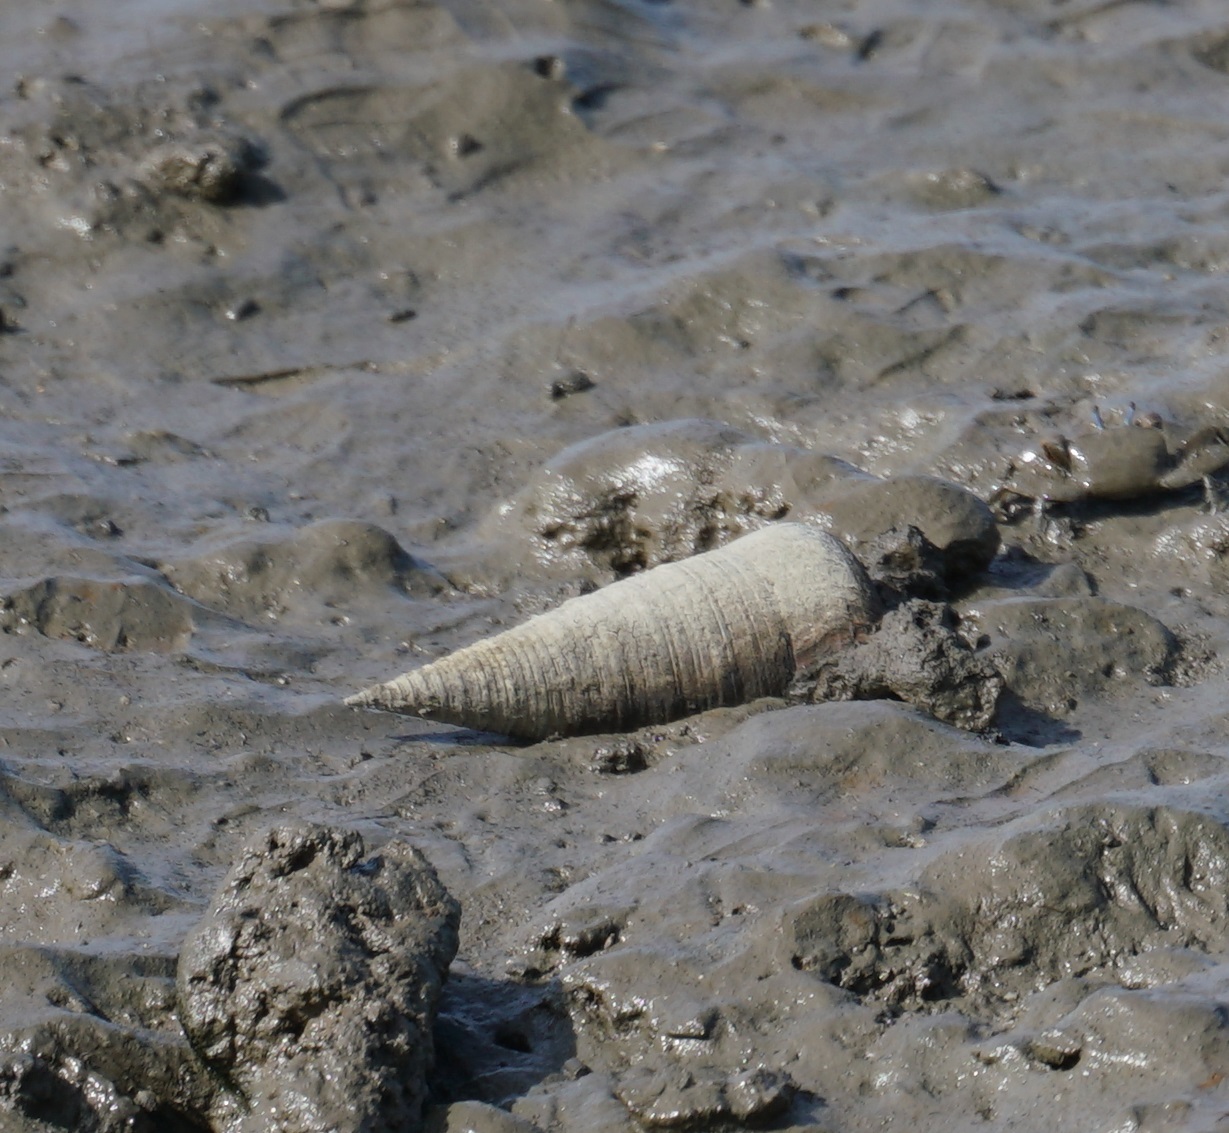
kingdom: Animalia
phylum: Mollusca
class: Gastropoda
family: Potamididae
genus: Telescopium
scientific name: Telescopium telescopium
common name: Telescope creeper
